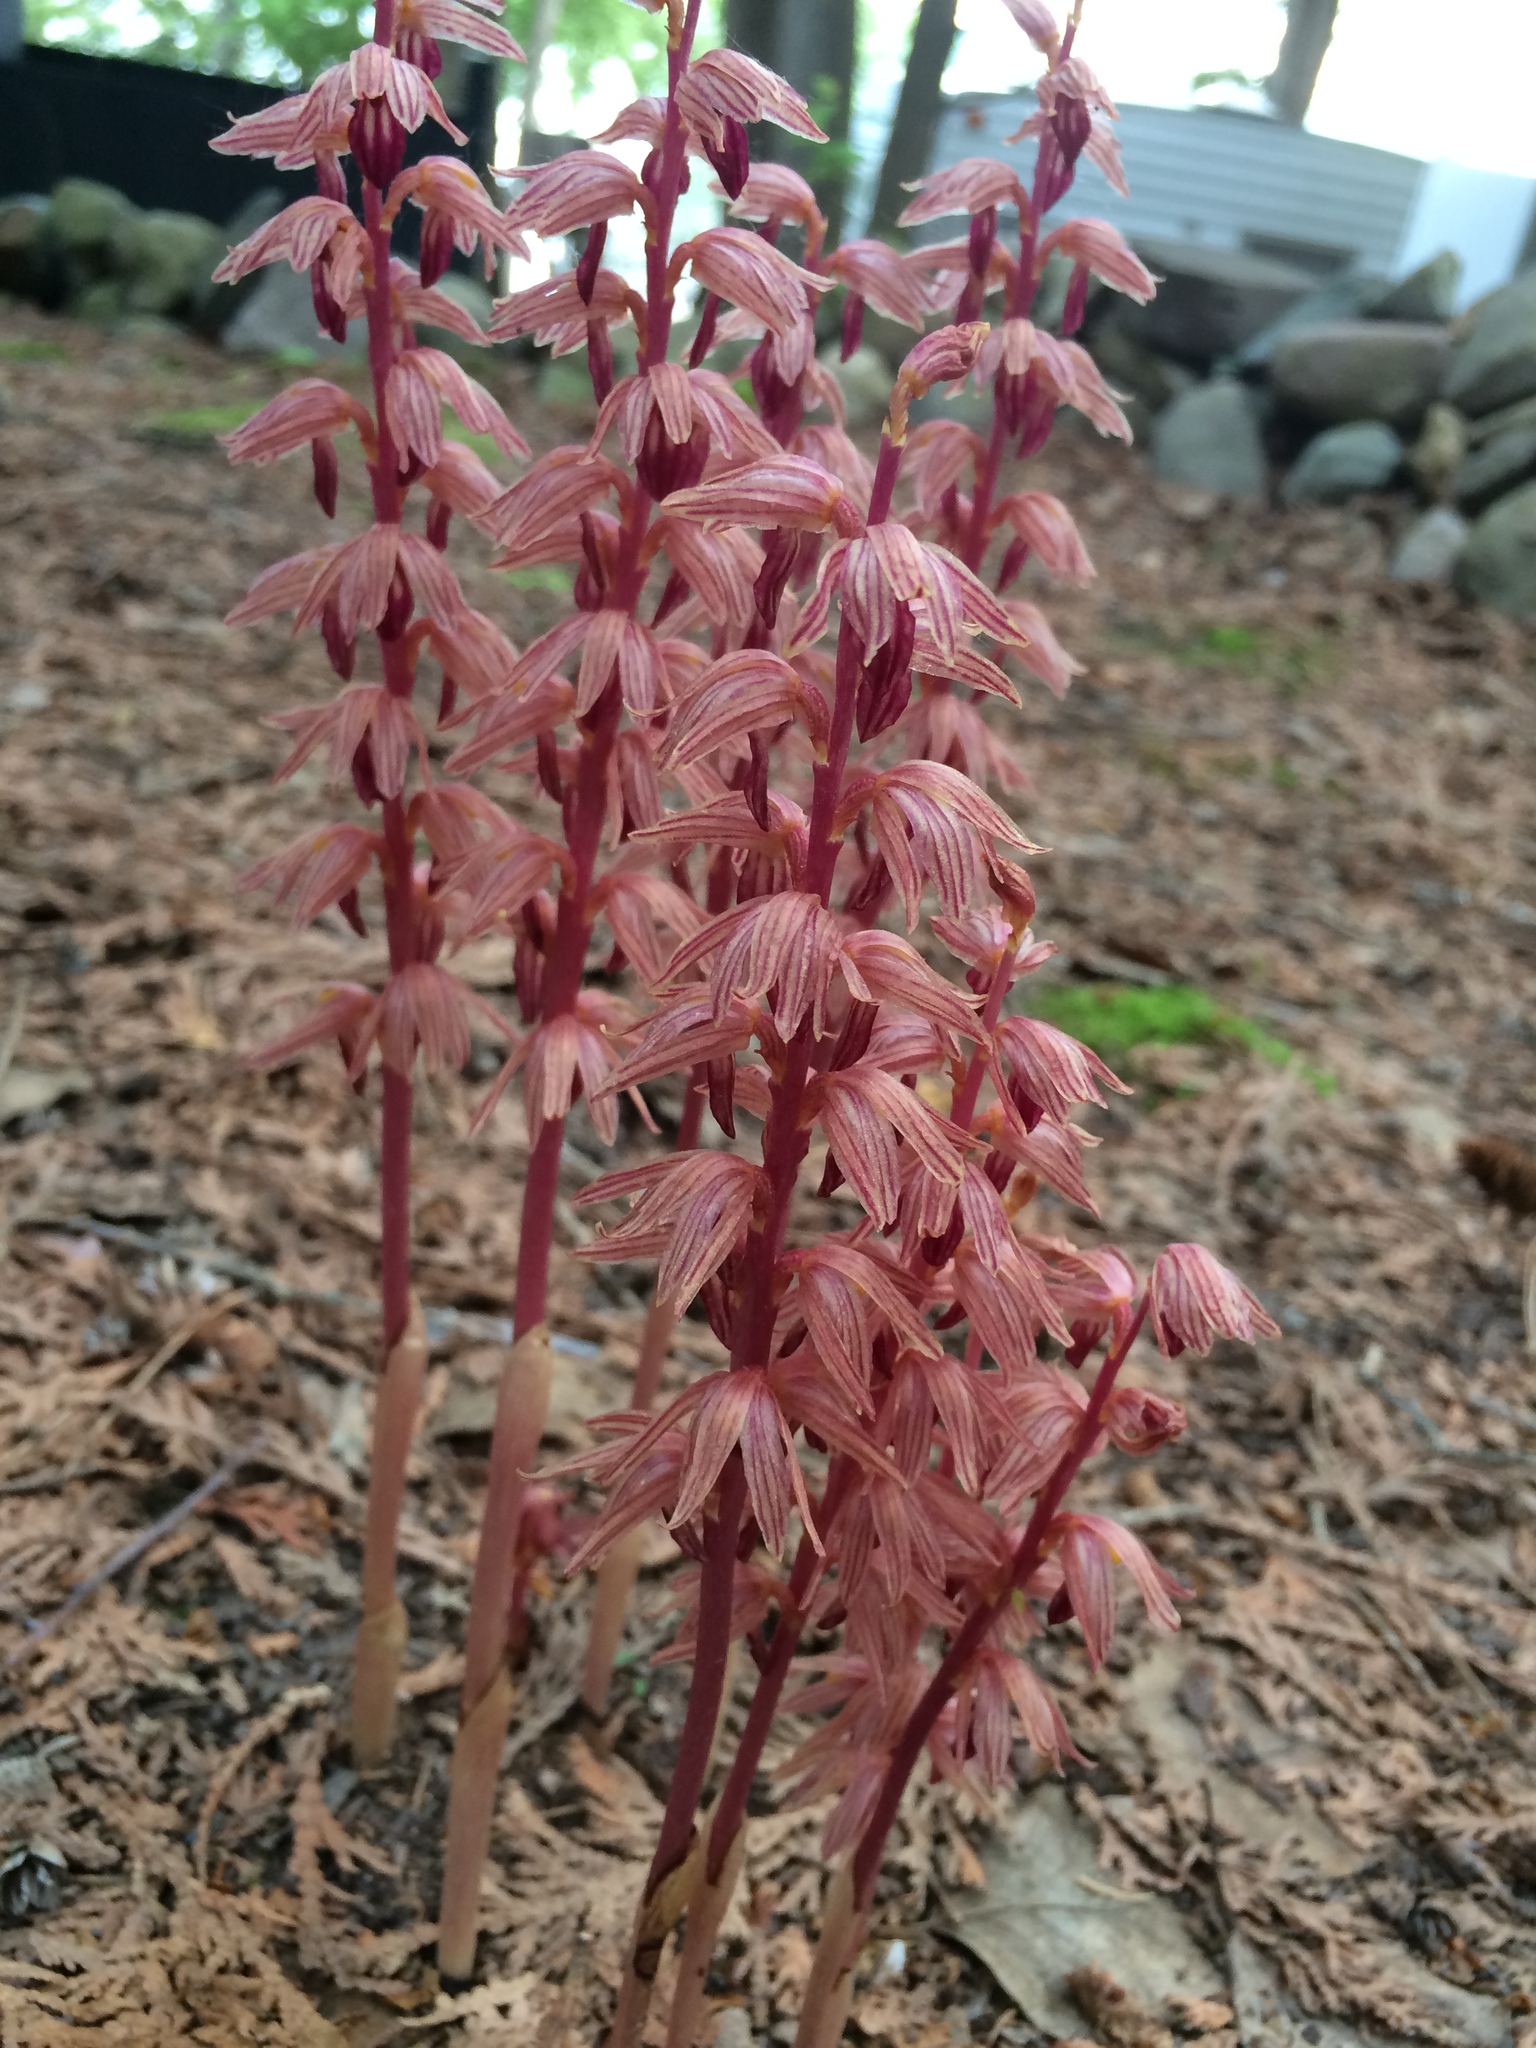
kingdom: Plantae
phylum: Tracheophyta
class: Liliopsida
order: Asparagales
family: Orchidaceae
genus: Corallorhiza
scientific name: Corallorhiza striata
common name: Hooded coralroot
